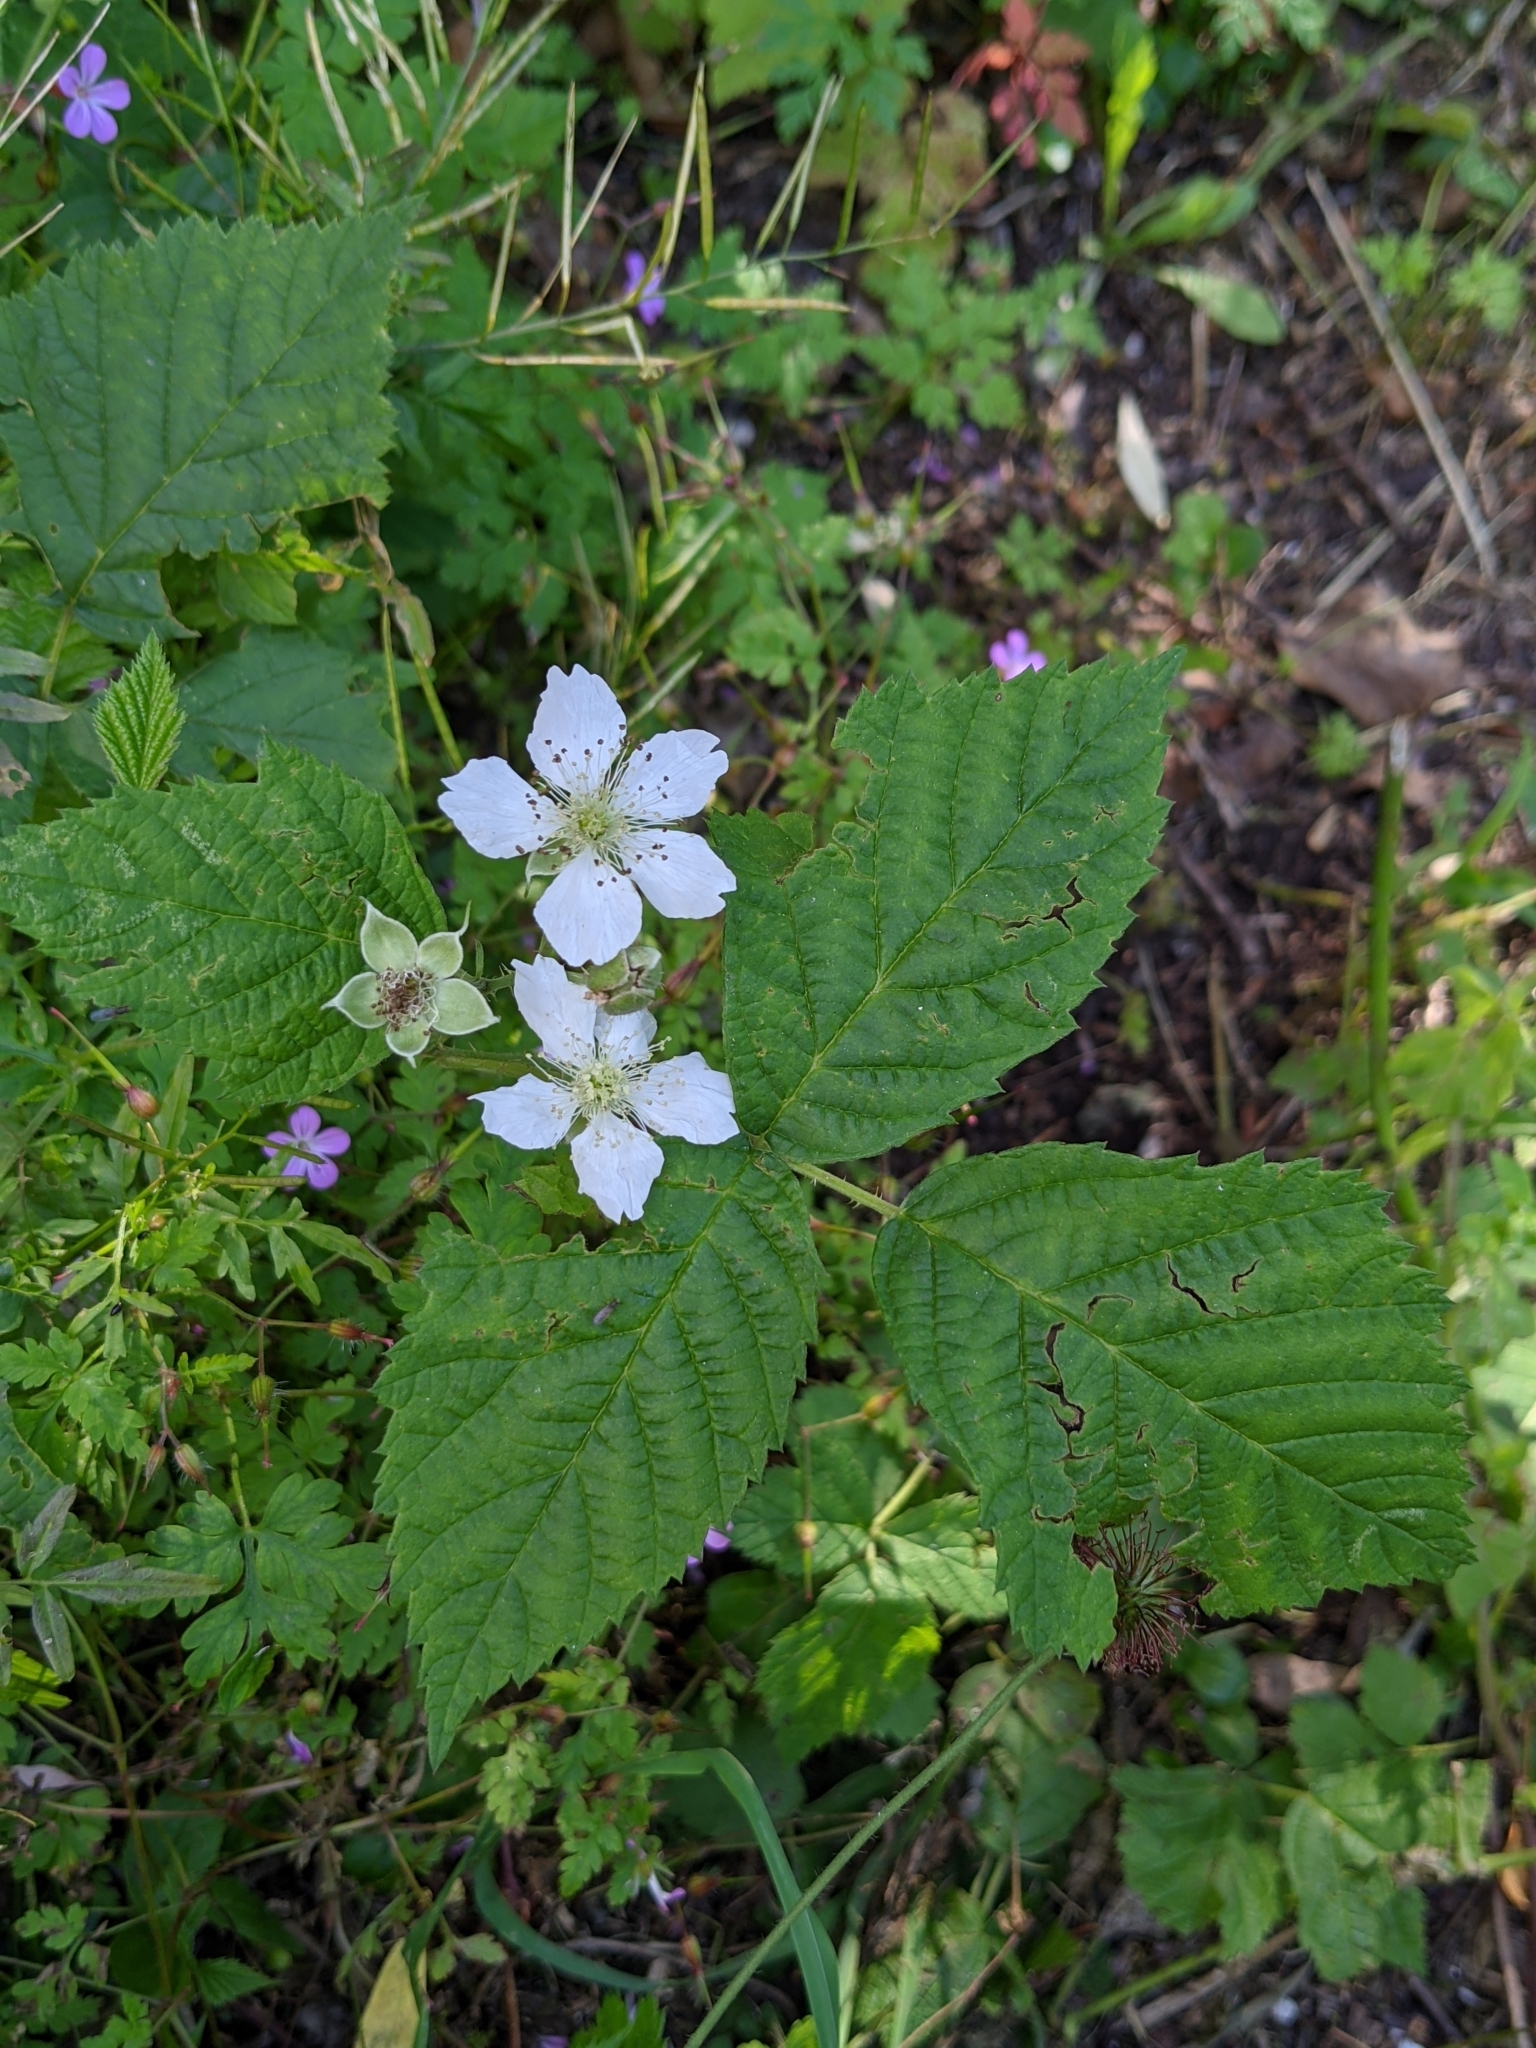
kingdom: Plantae
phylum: Tracheophyta
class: Magnoliopsida
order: Rosales
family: Rosaceae
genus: Rubus
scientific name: Rubus caesius
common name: Dewberry
